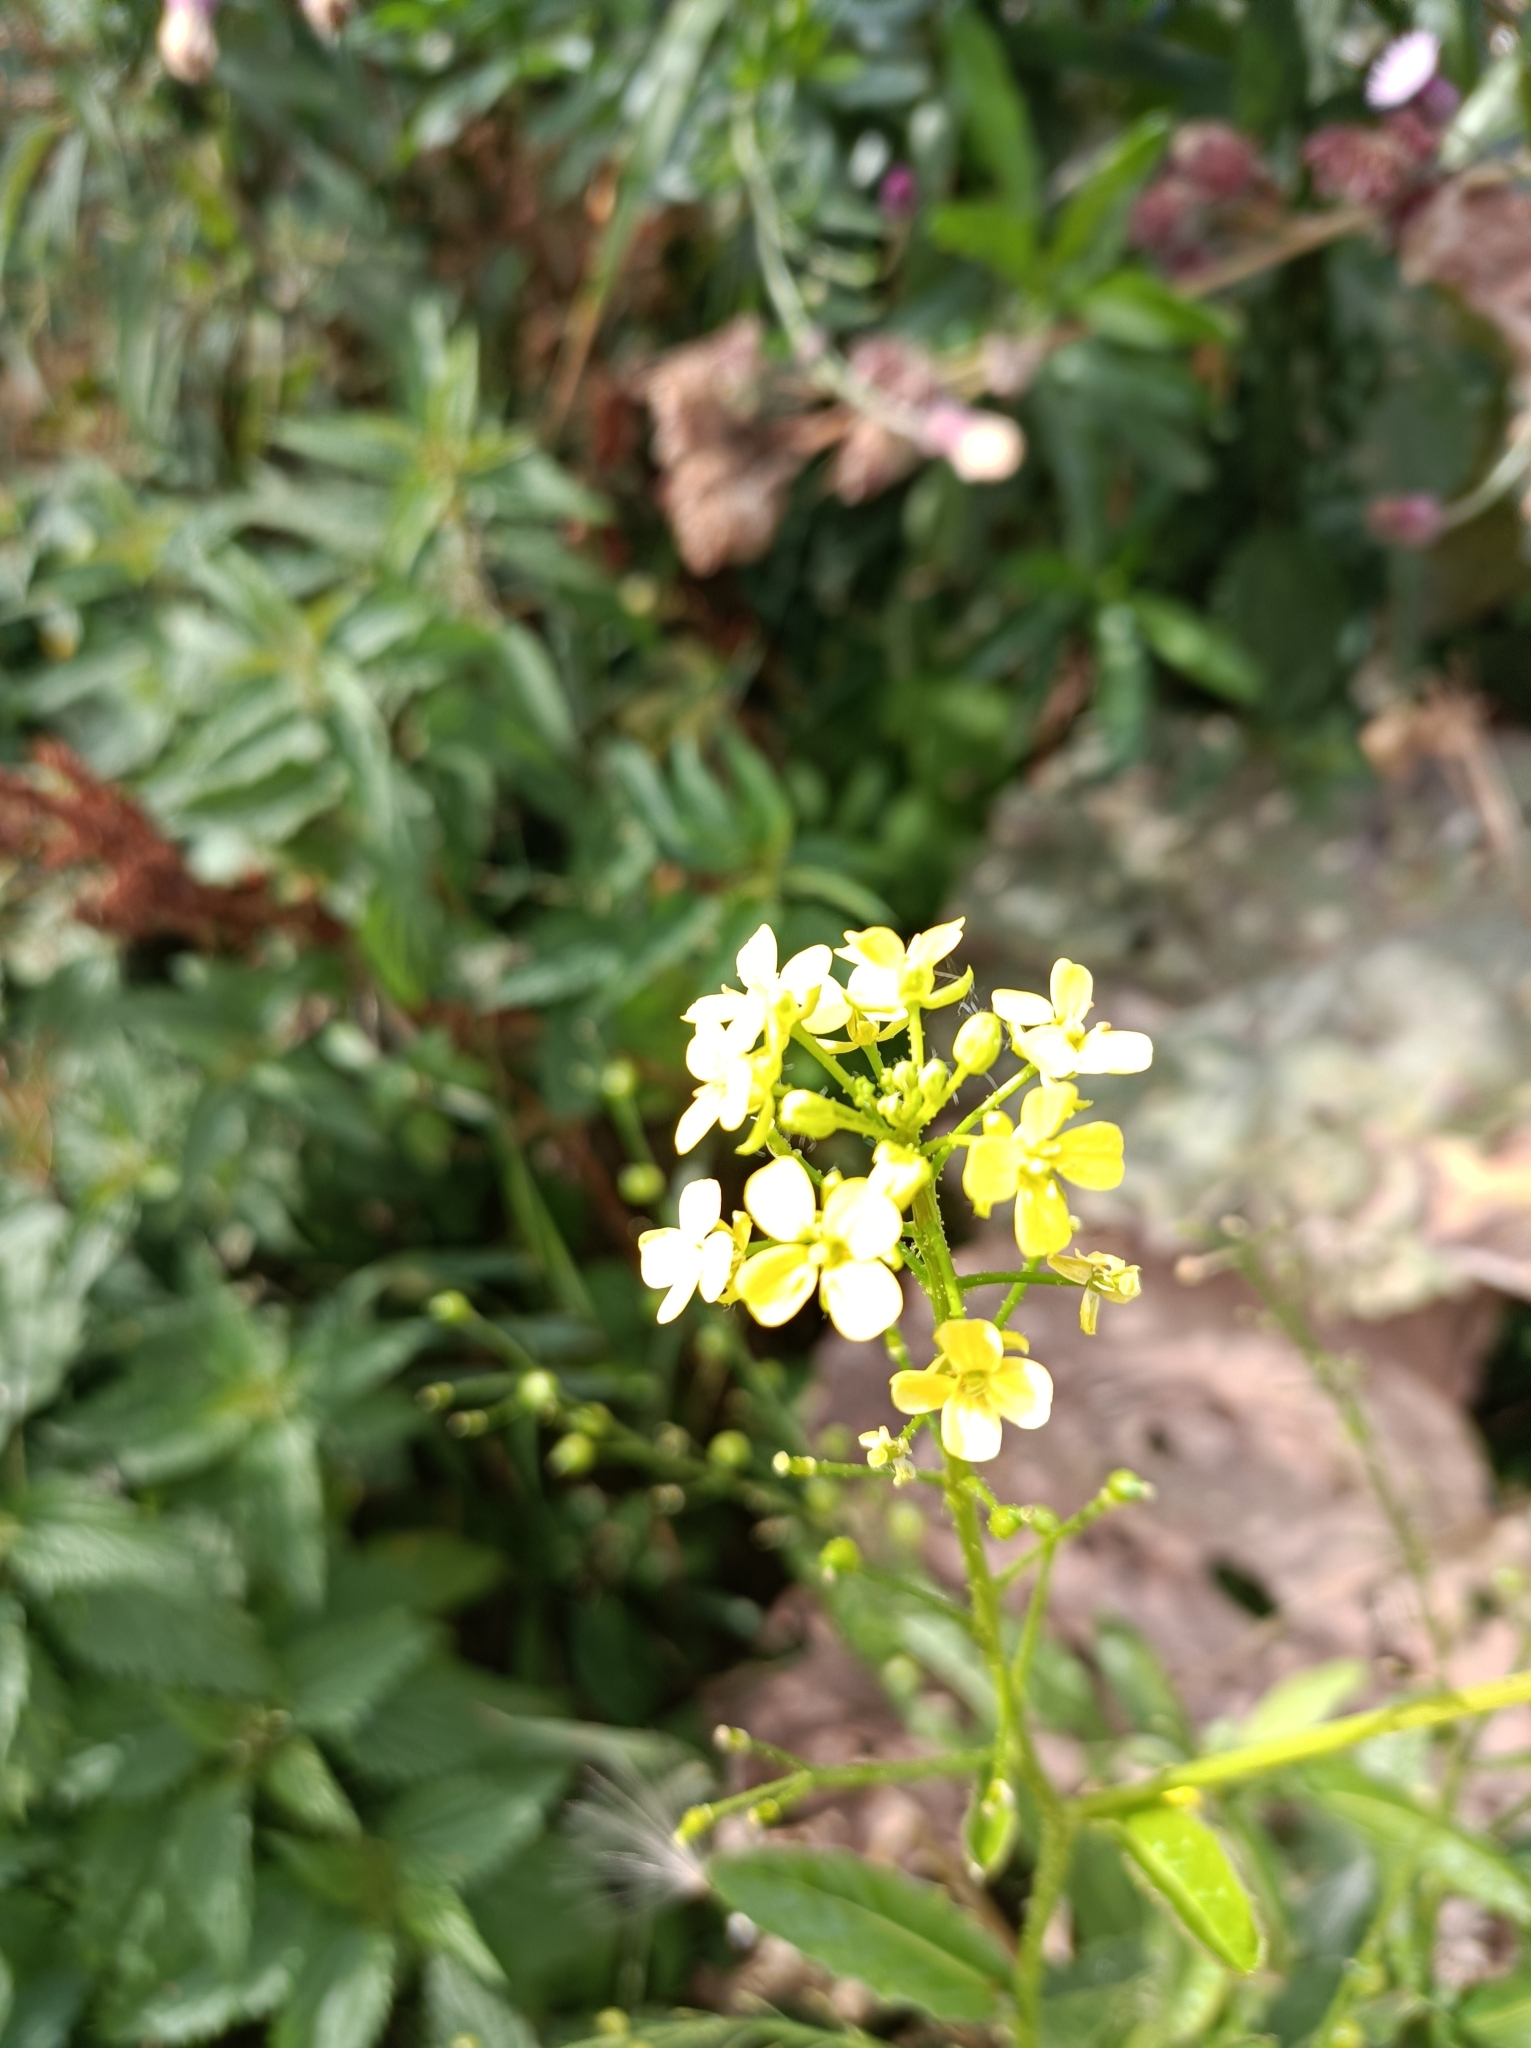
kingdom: Plantae
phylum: Tracheophyta
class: Magnoliopsida
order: Brassicales
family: Brassicaceae
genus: Bunias
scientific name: Bunias orientalis
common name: Warty-cabbage
